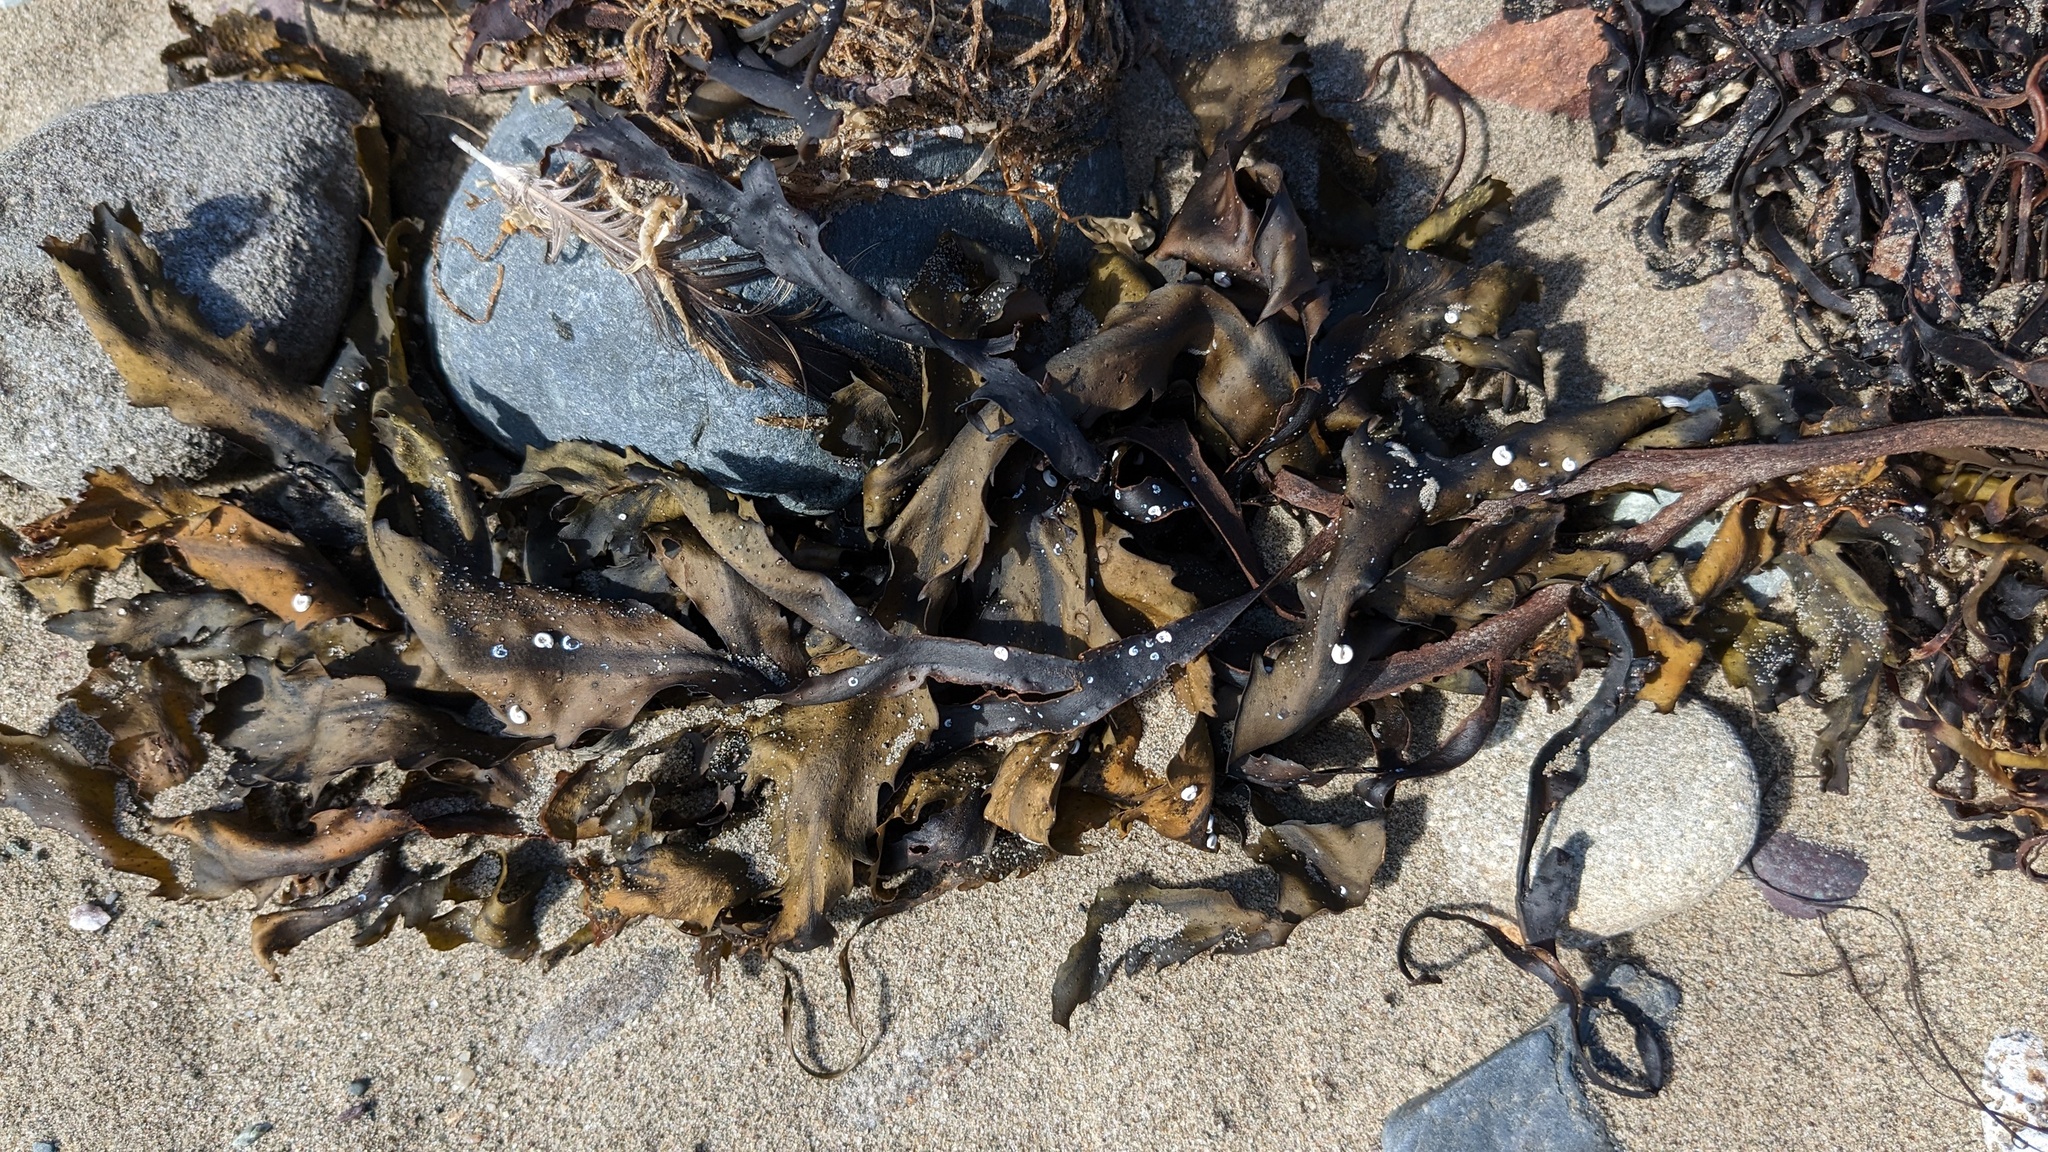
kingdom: Chromista
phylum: Ochrophyta
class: Phaeophyceae
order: Fucales
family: Fucaceae
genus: Fucus
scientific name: Fucus serratus
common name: Toothed wrack
